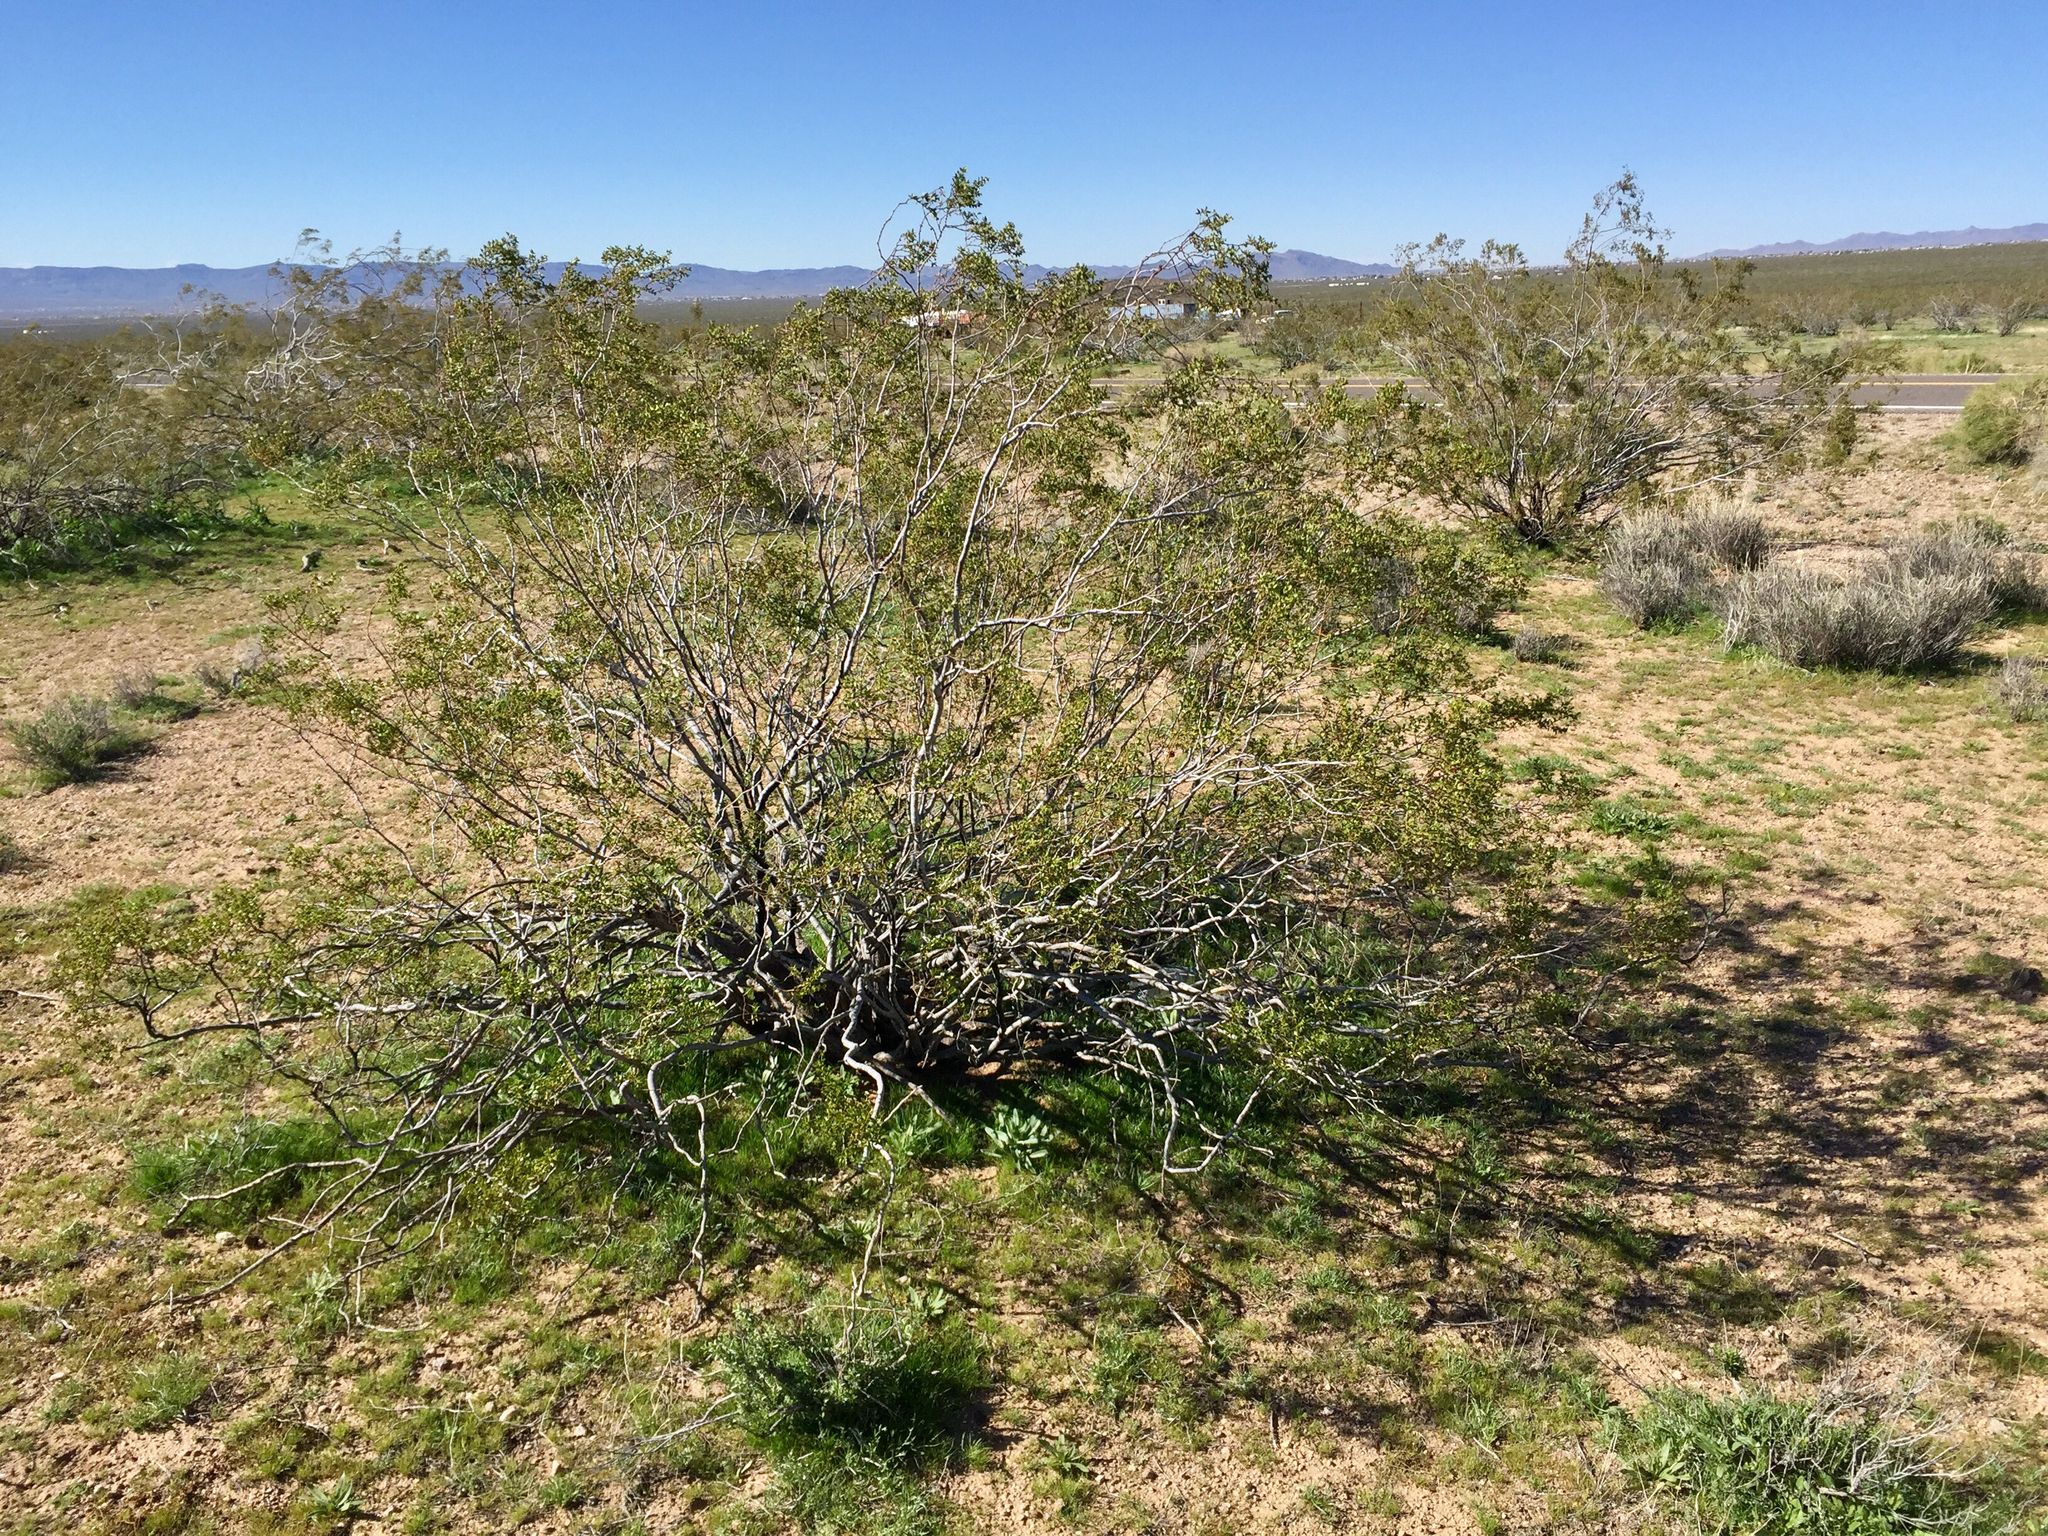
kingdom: Plantae
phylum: Tracheophyta
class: Magnoliopsida
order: Zygophyllales
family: Zygophyllaceae
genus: Larrea
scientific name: Larrea tridentata
